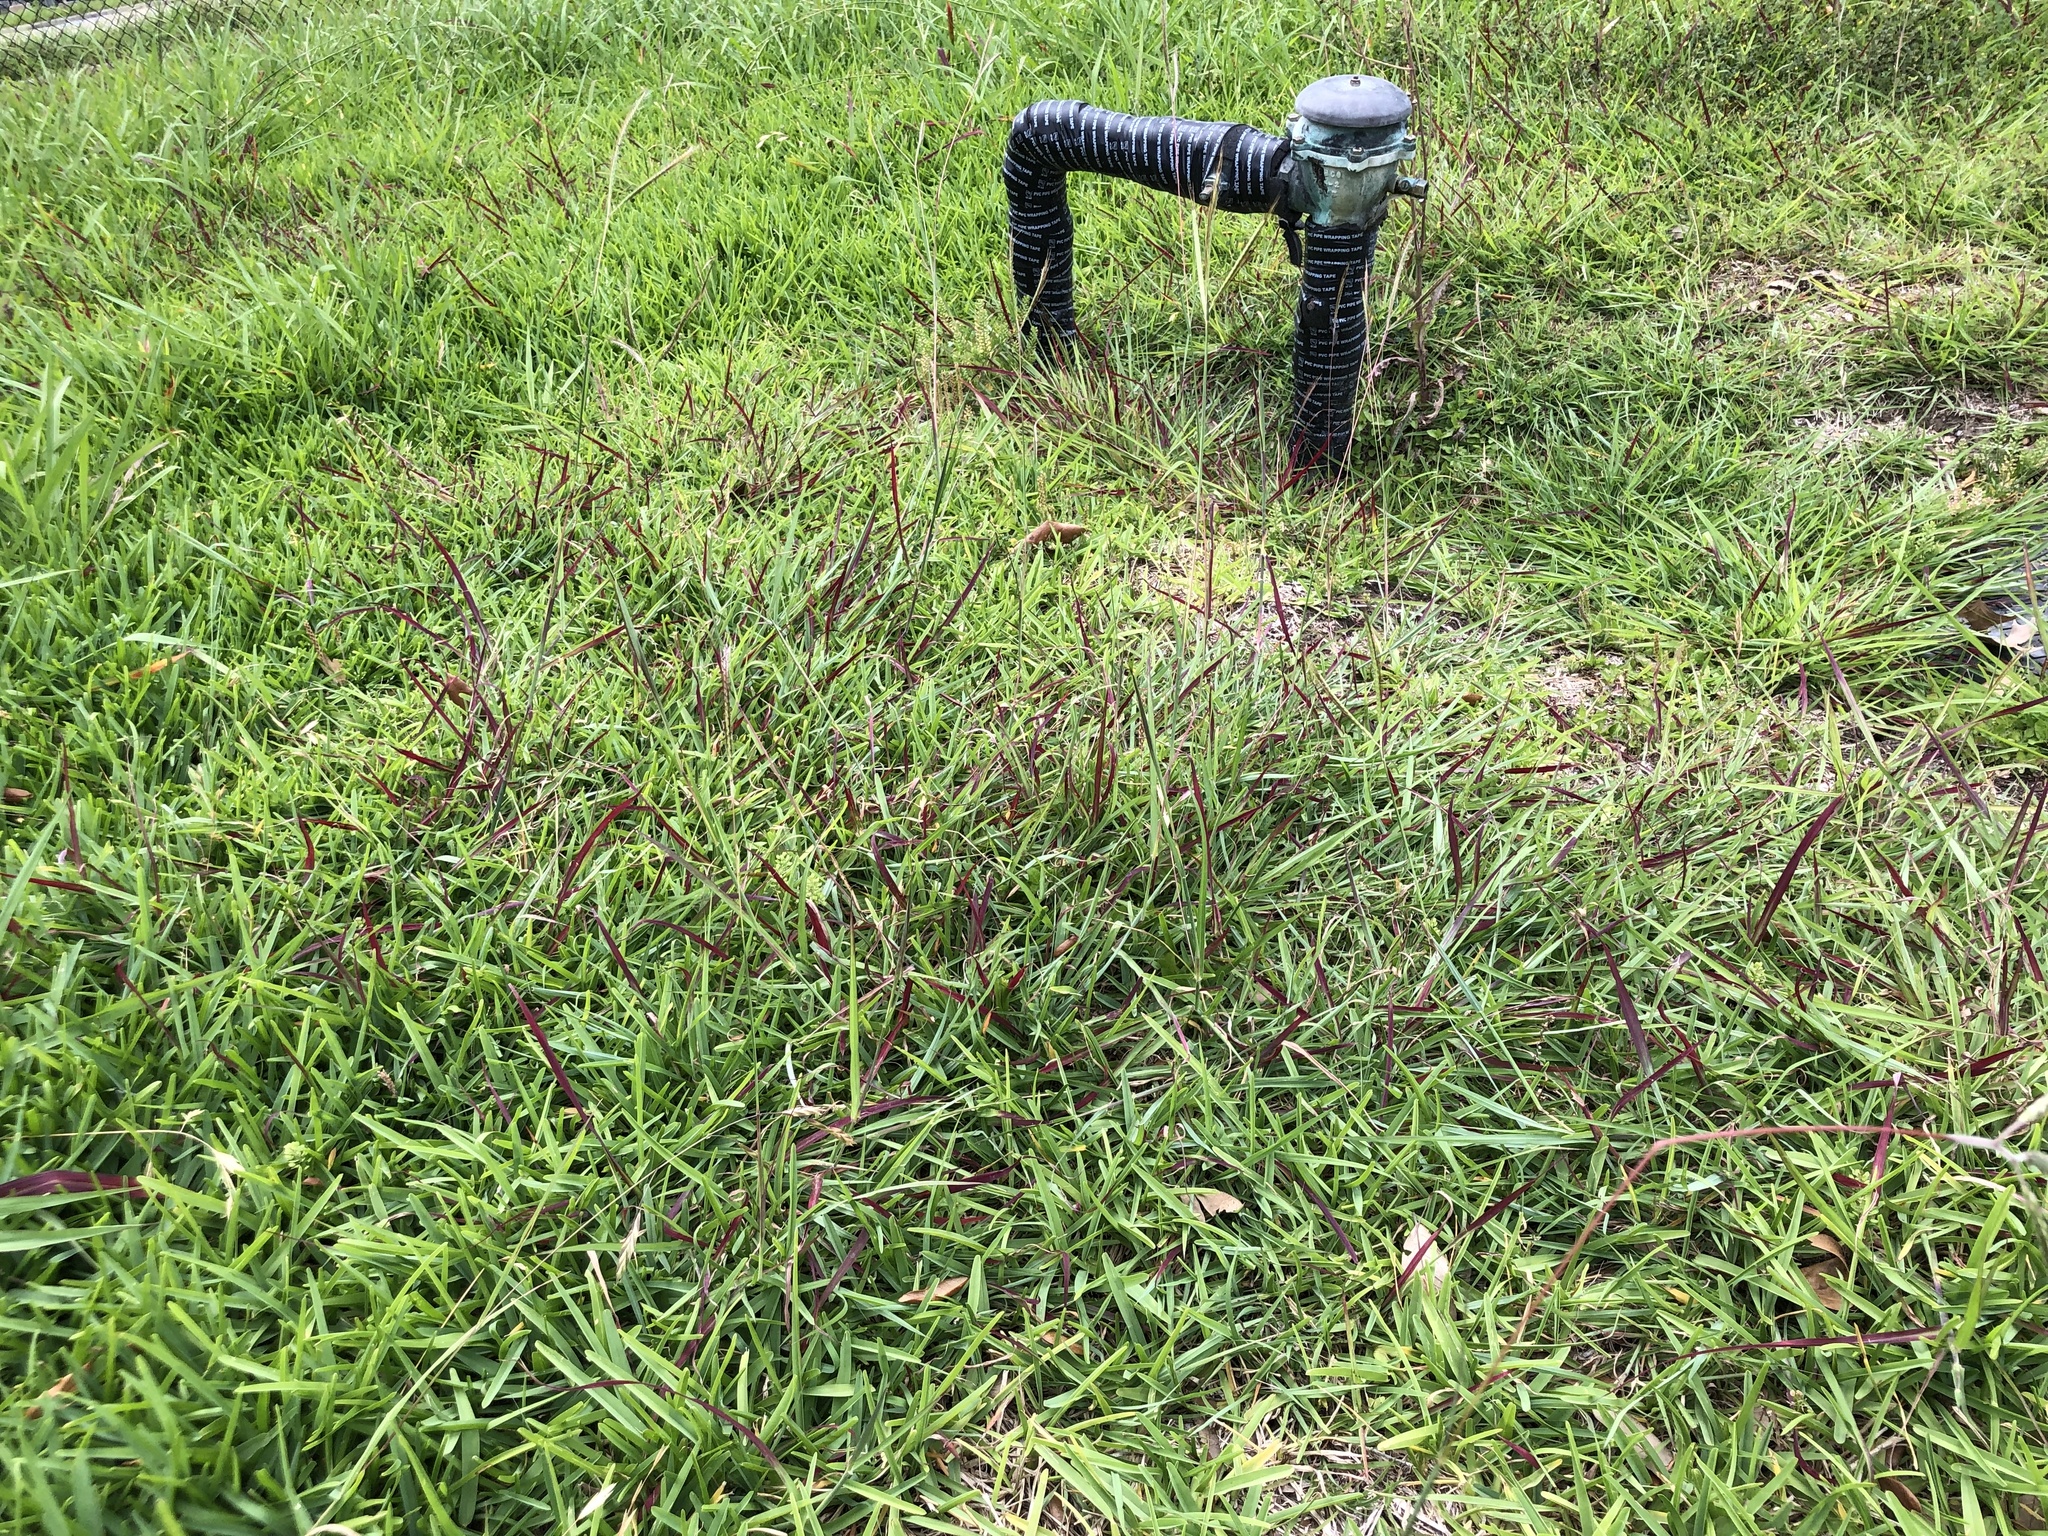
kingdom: Plantae
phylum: Tracheophyta
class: Liliopsida
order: Poales
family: Poaceae
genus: Dichanthium
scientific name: Dichanthium aristatum
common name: Angleton bluestem
